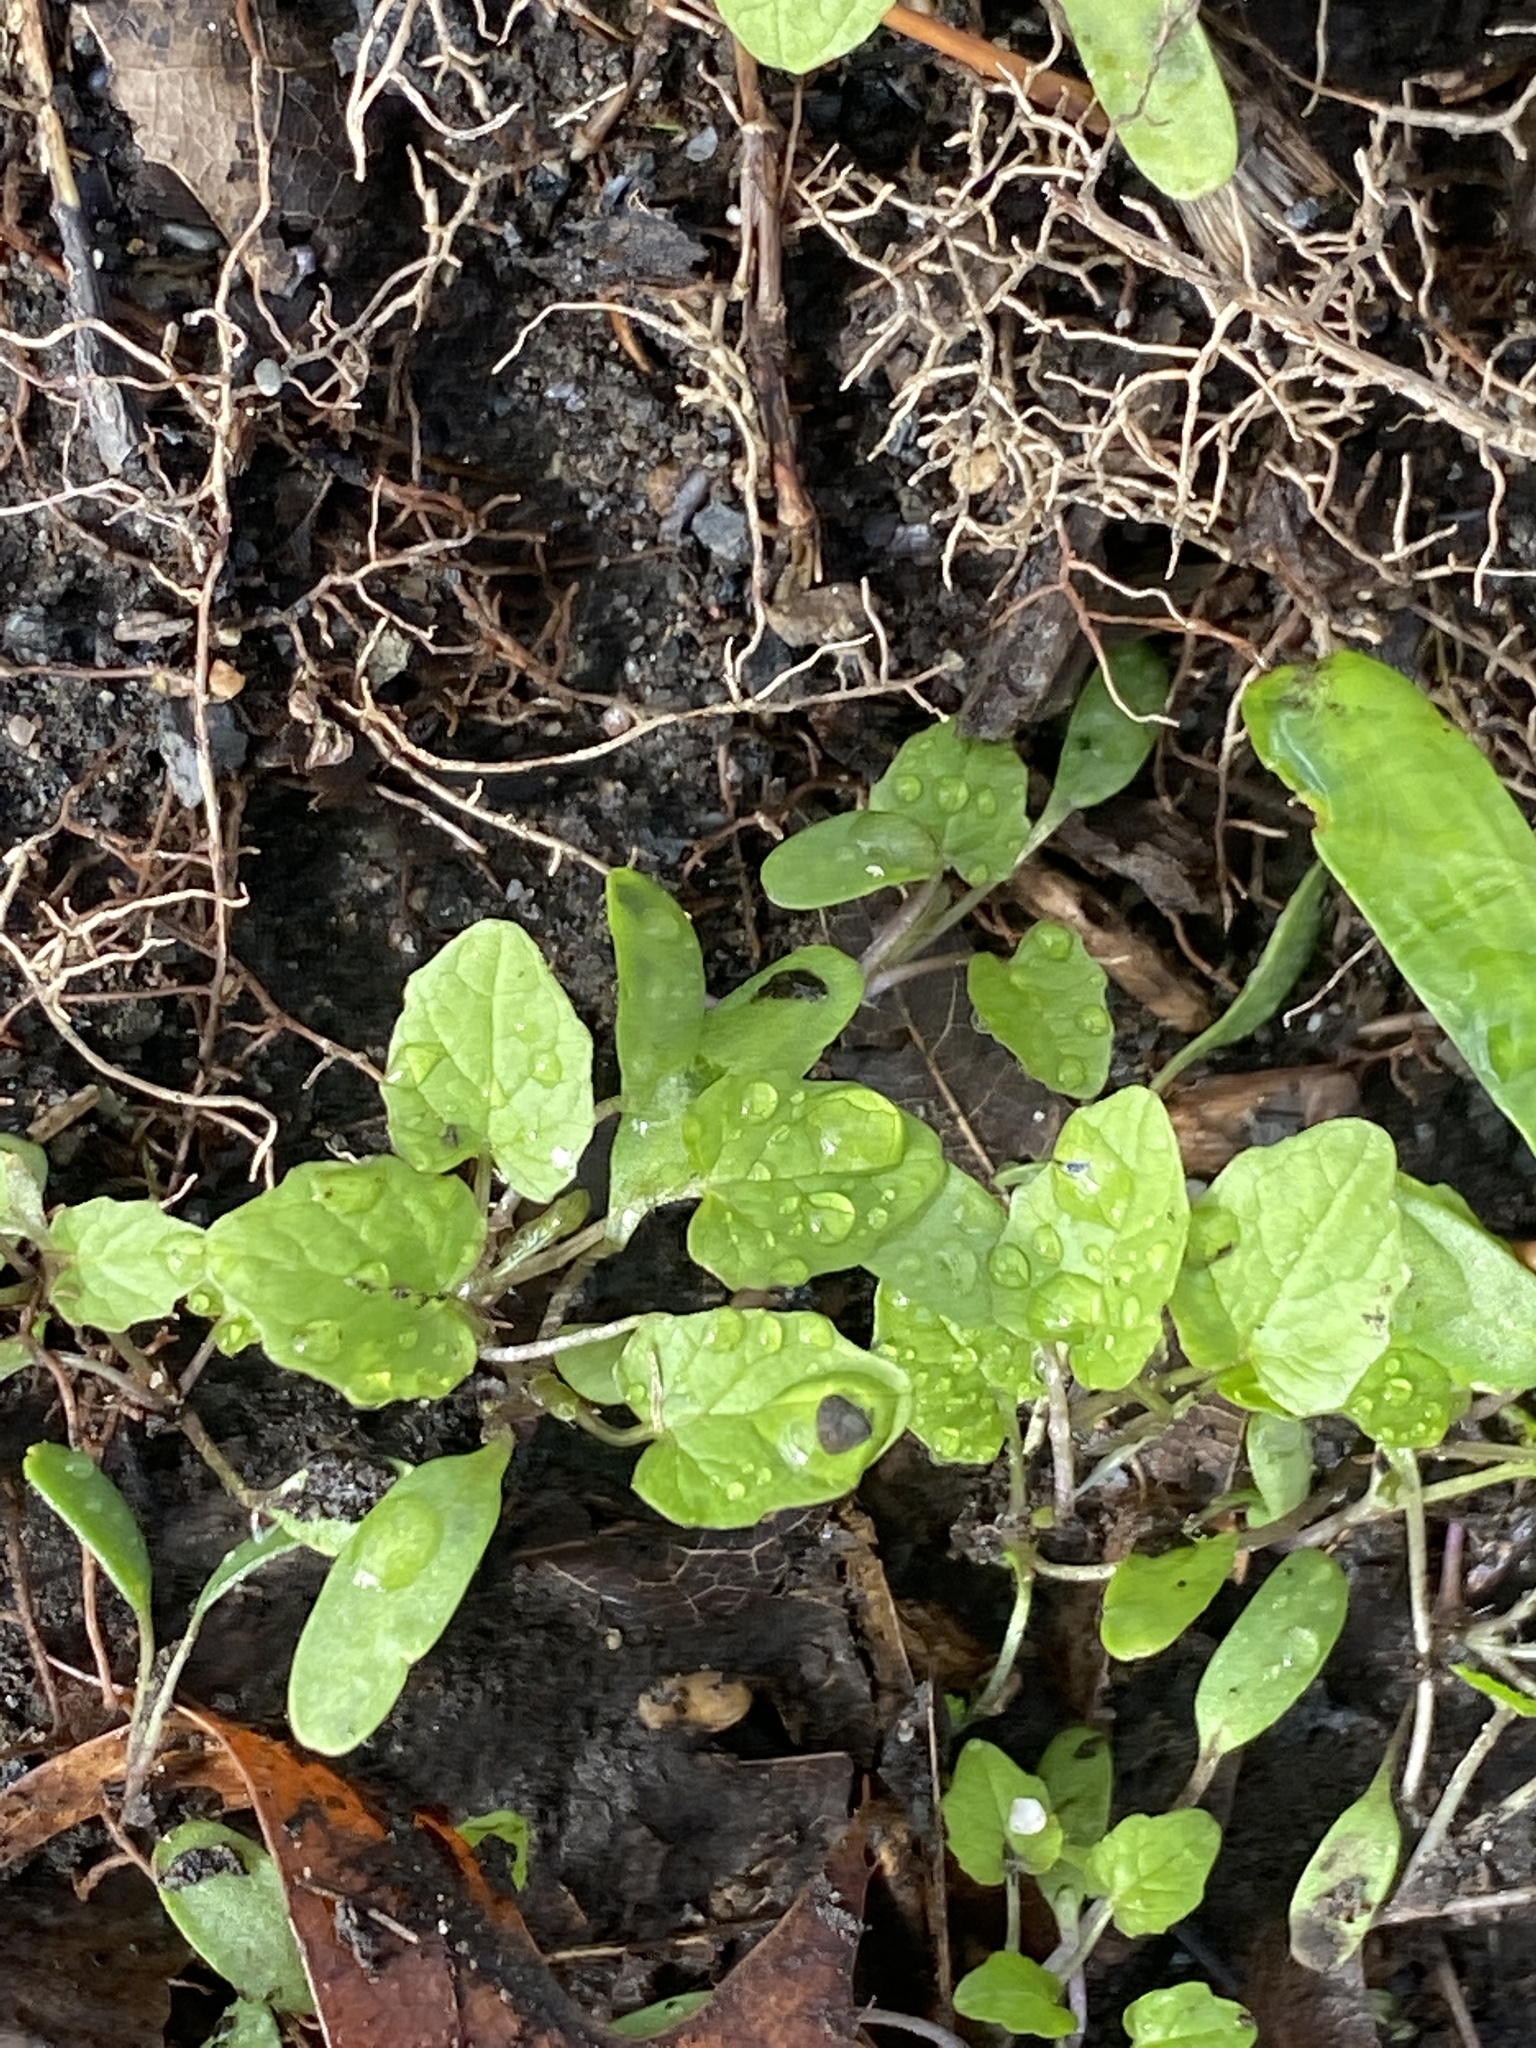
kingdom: Plantae
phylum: Tracheophyta
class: Magnoliopsida
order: Asterales
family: Asteraceae
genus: Artemisia
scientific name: Artemisia vulgaris
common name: Mugwort
